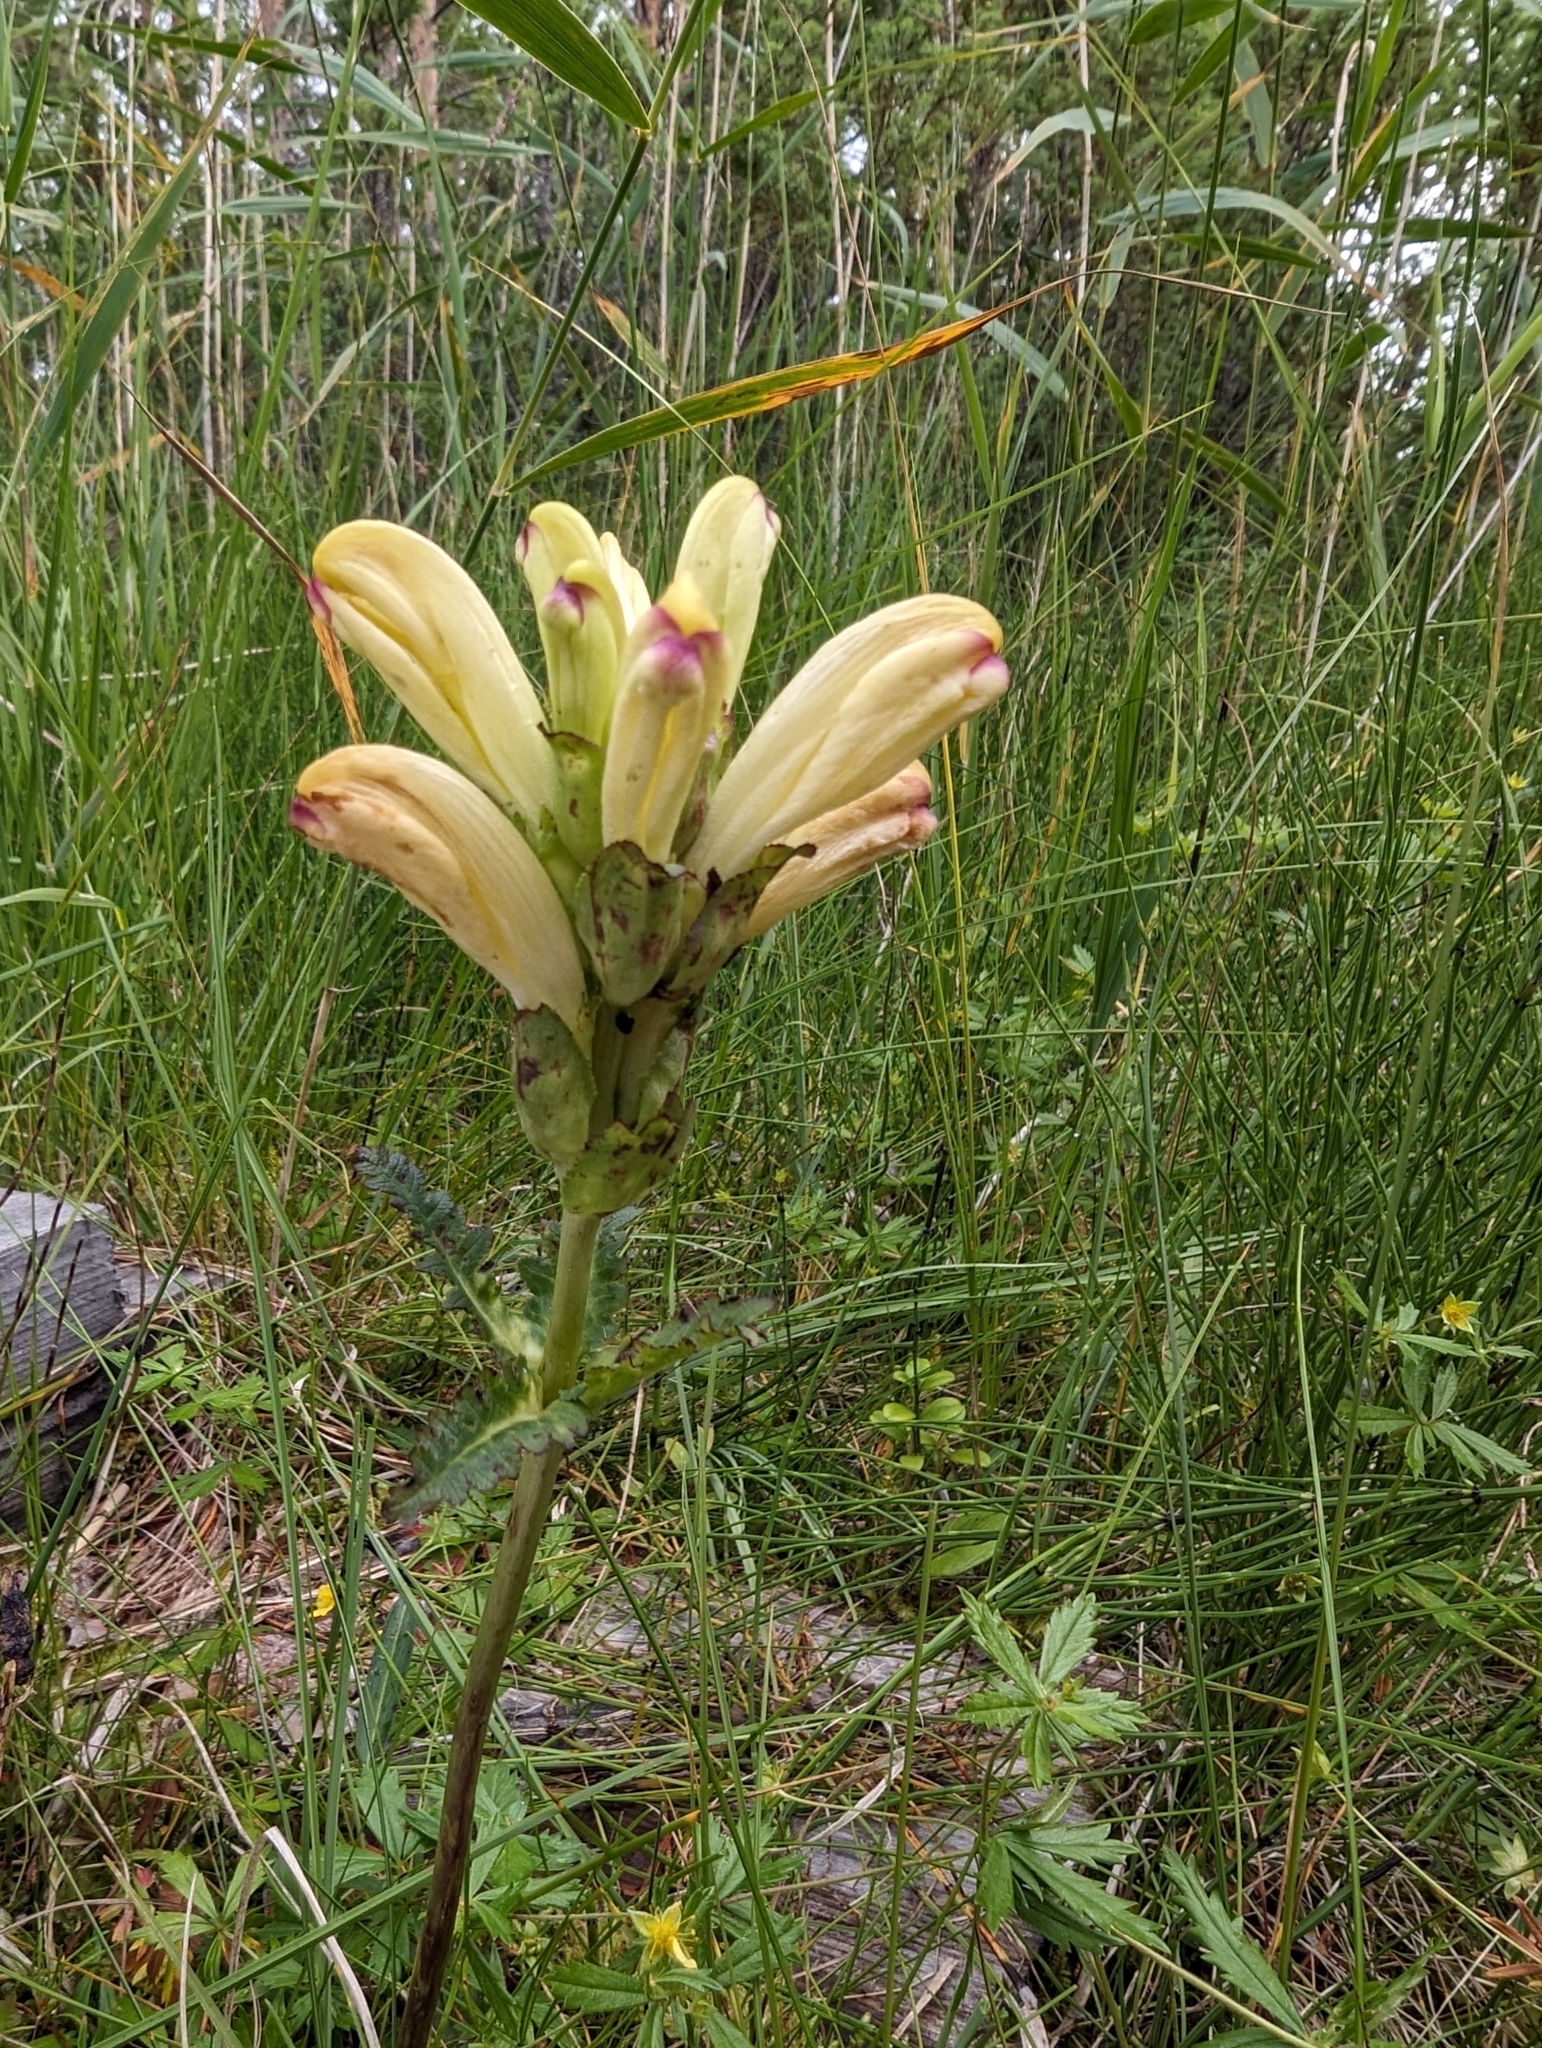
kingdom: Plantae
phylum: Tracheophyta
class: Magnoliopsida
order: Lamiales
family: Orobanchaceae
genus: Pedicularis
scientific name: Pedicularis sceptrum-carolinum
